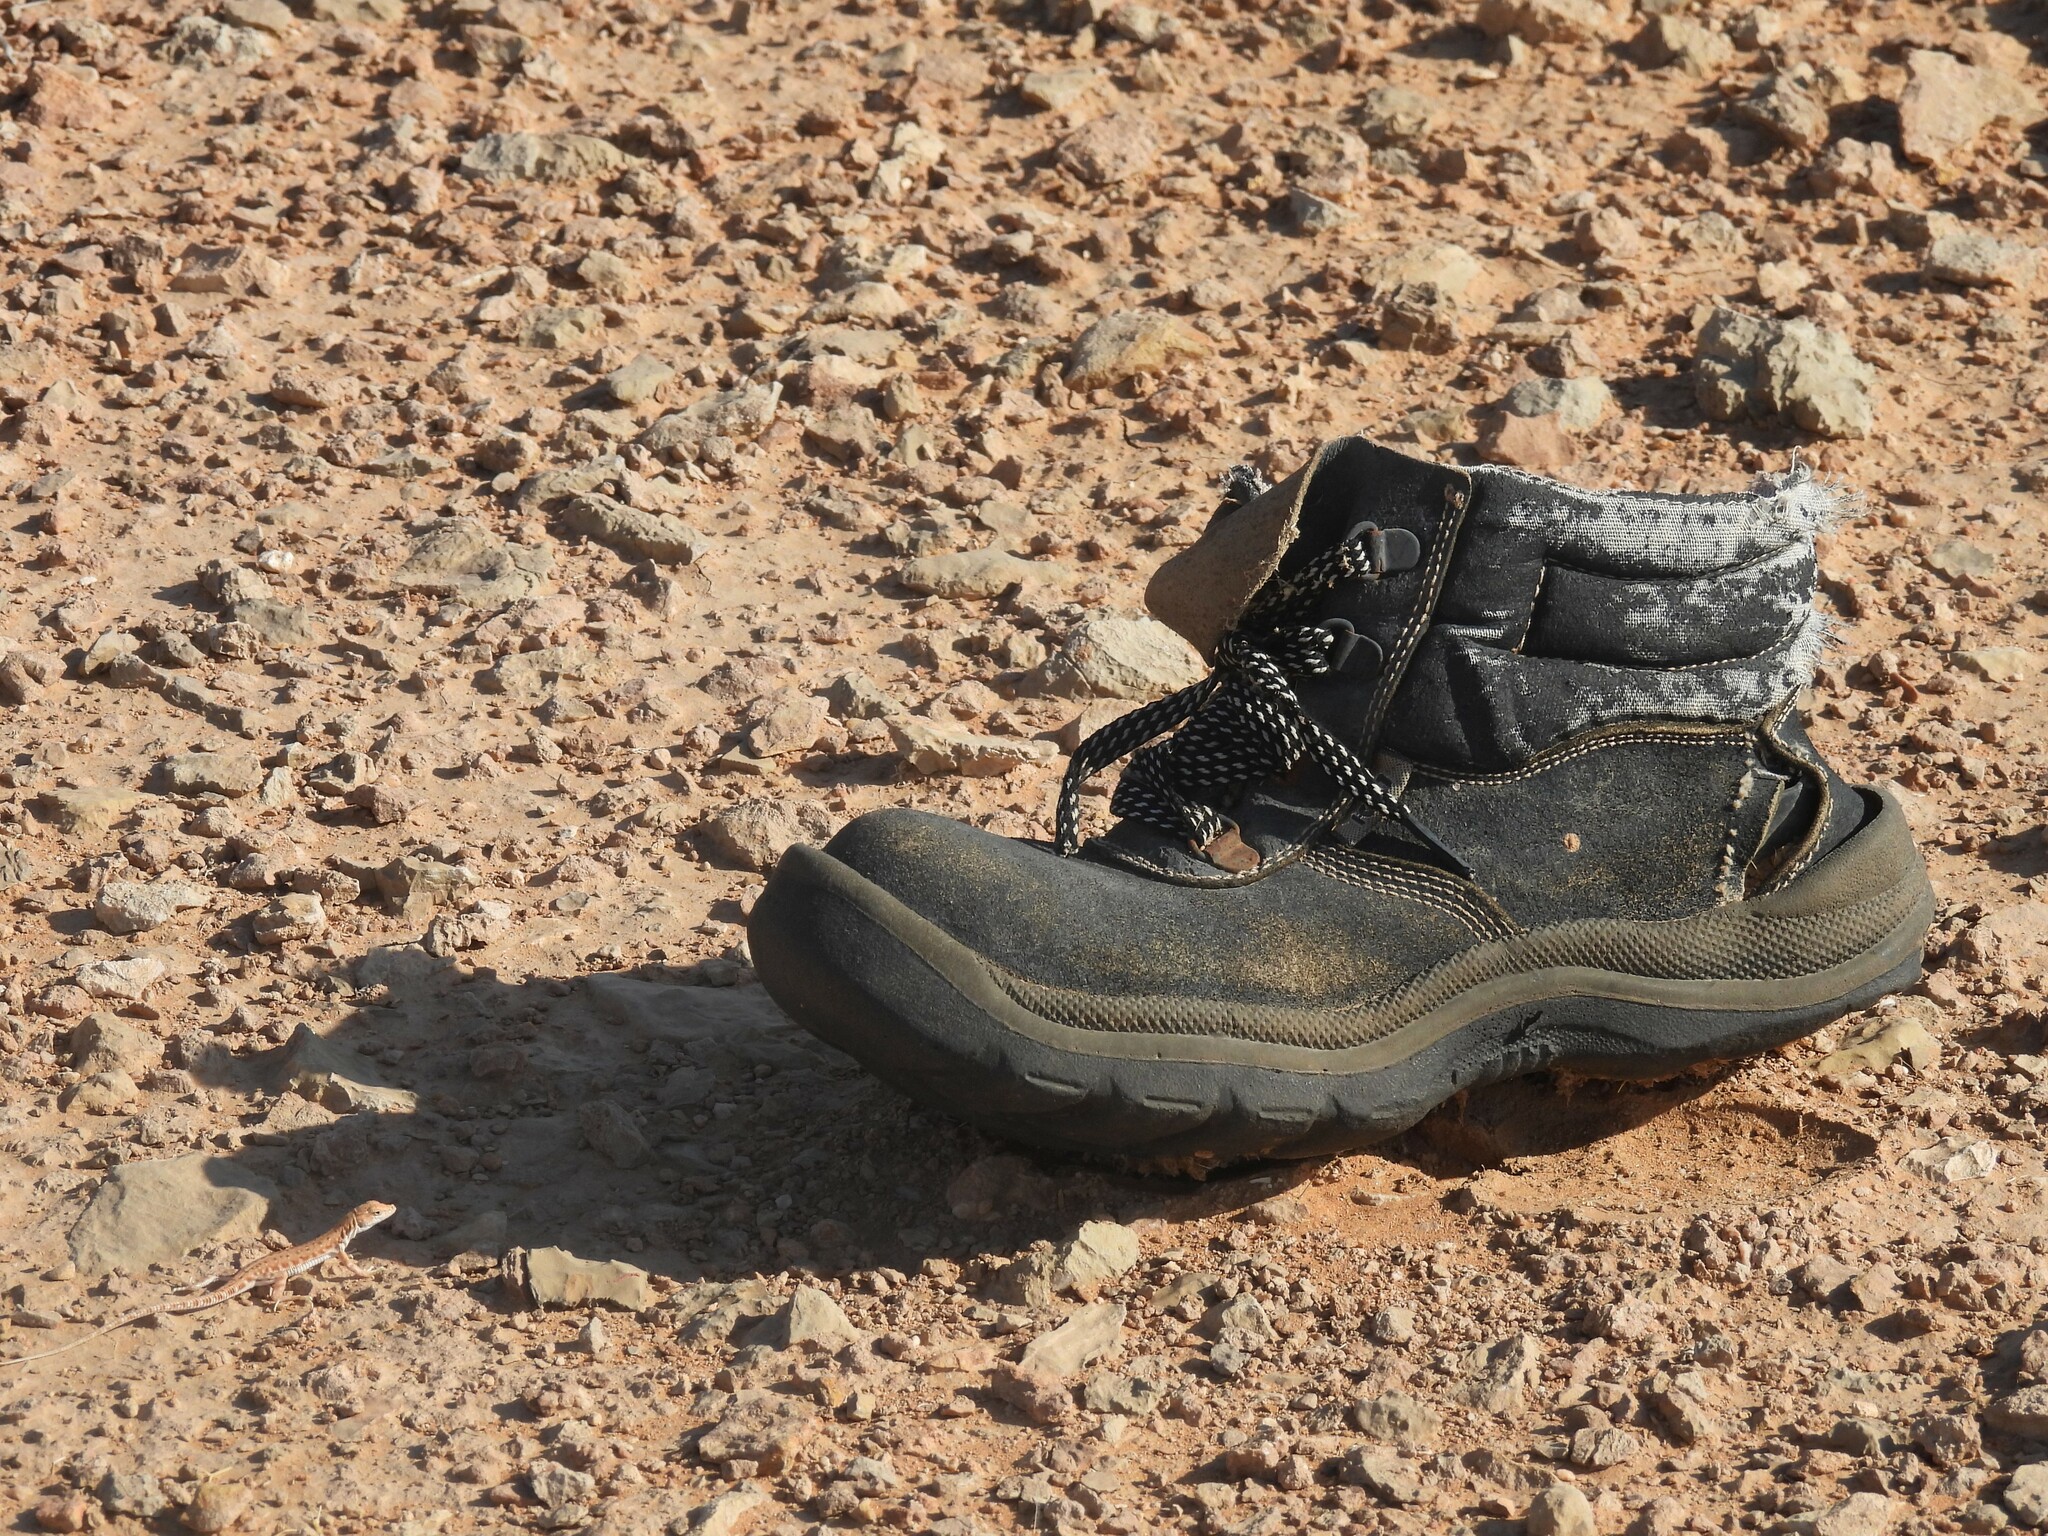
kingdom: Animalia
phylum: Chordata
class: Squamata
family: Lacertidae
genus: Mesalina
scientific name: Mesalina brevirostris
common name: Blanford's short-nosed desert lizard
